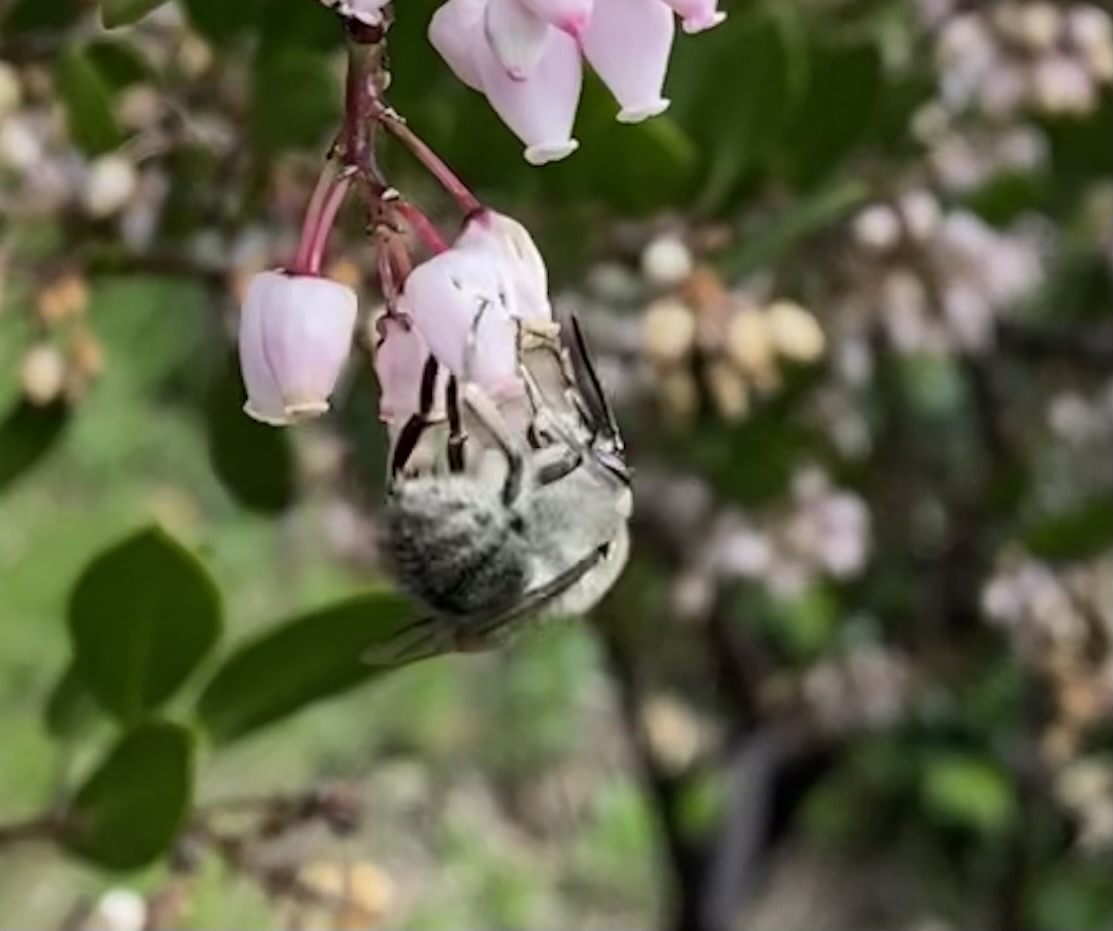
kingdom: Animalia
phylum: Arthropoda
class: Insecta
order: Hymenoptera
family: Apidae
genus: Habropoda
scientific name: Habropoda depressa
